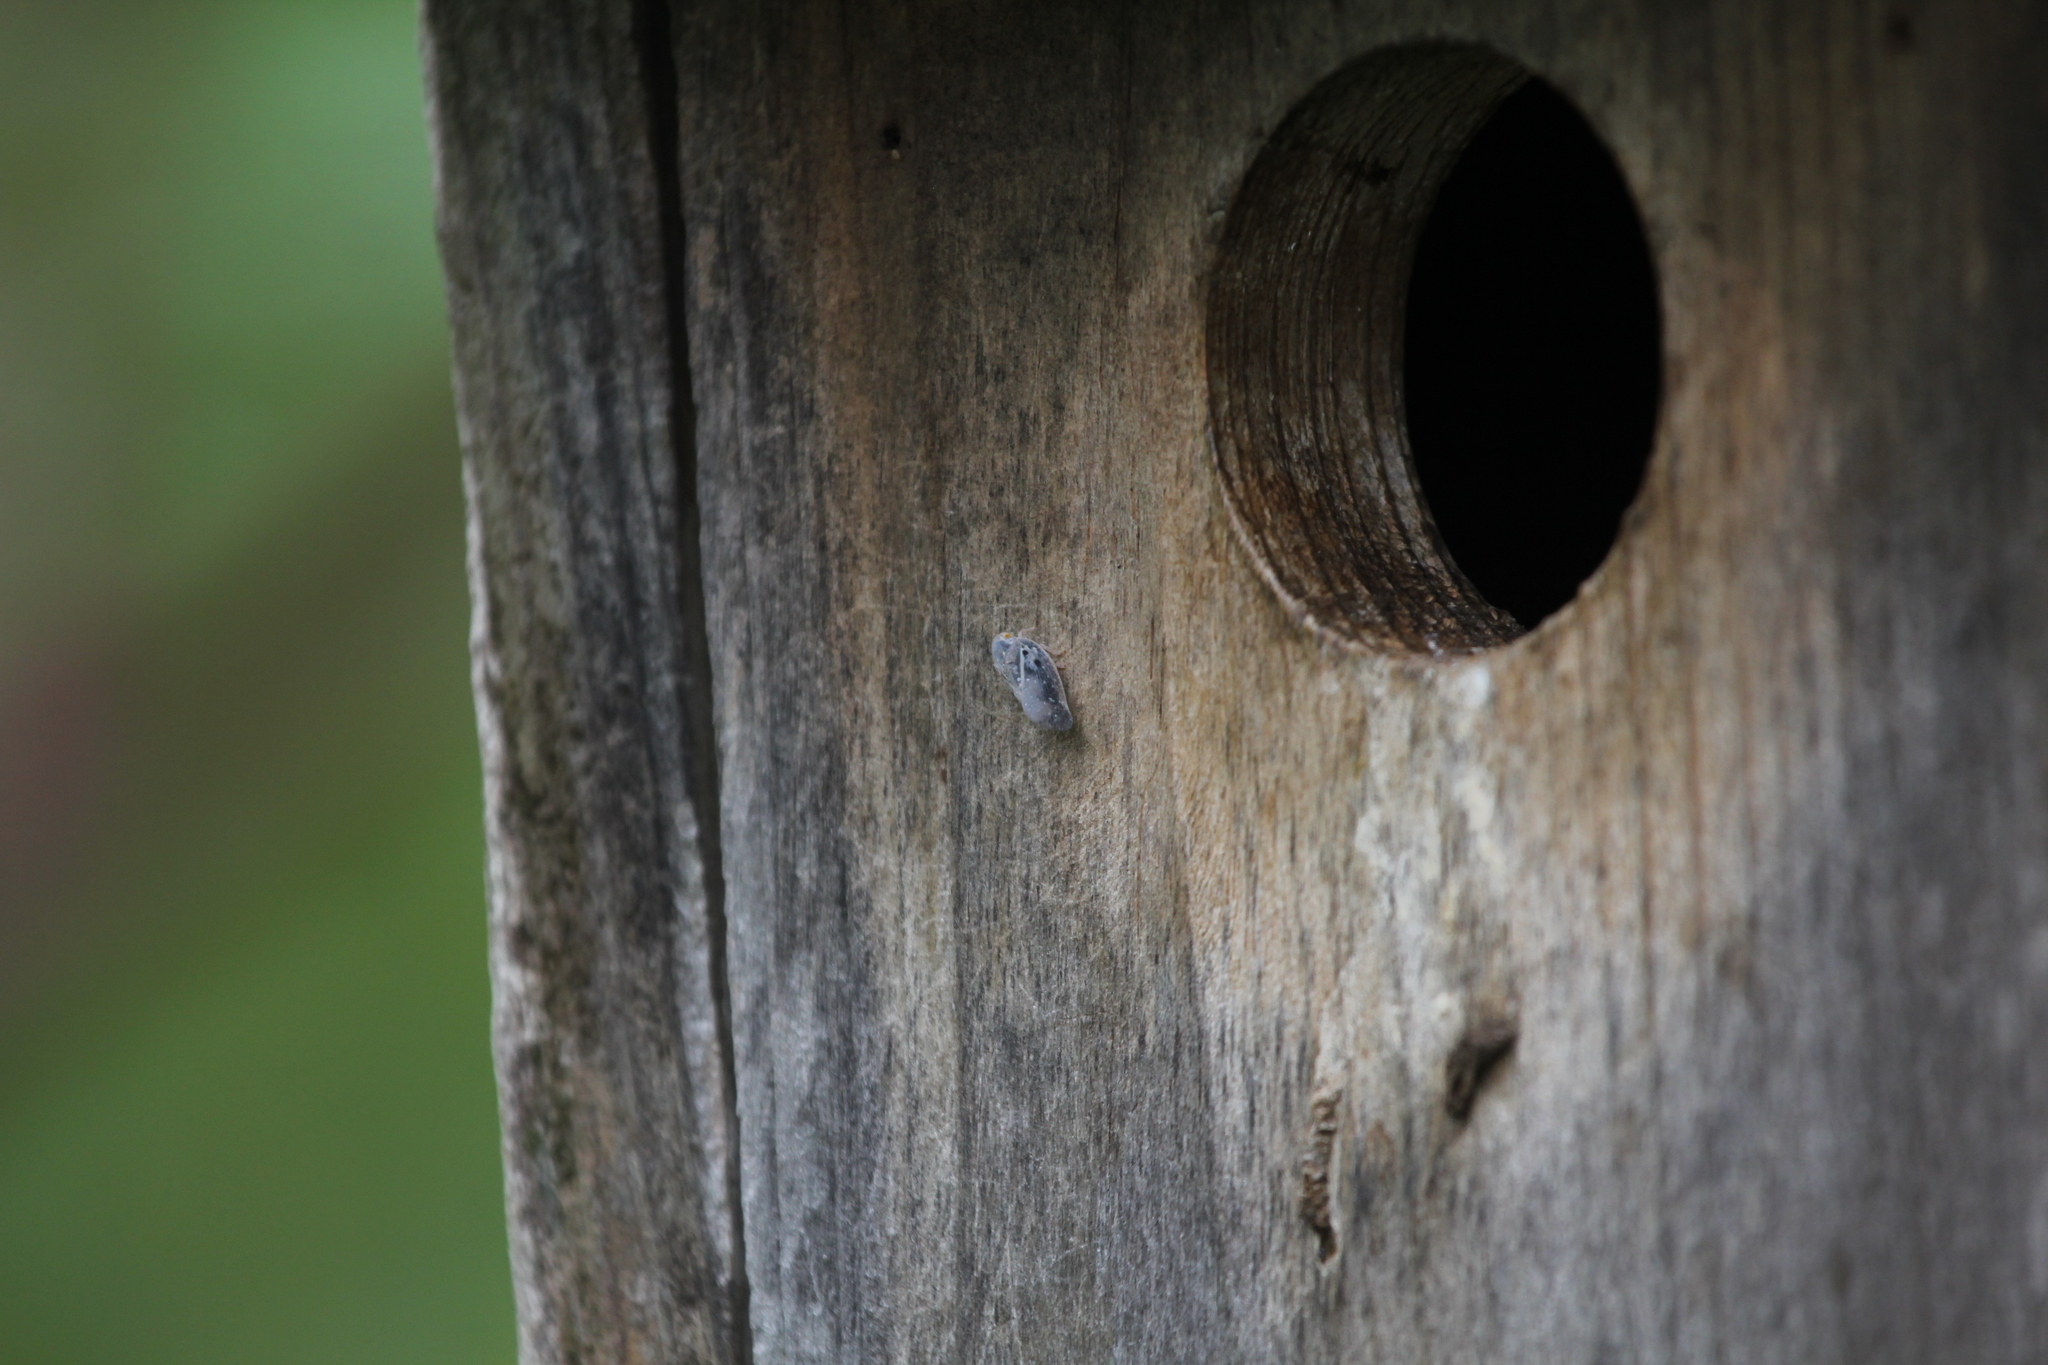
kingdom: Animalia
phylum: Arthropoda
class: Insecta
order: Hemiptera
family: Flatidae
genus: Metcalfa
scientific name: Metcalfa pruinosa
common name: Citrus flatid planthopper
